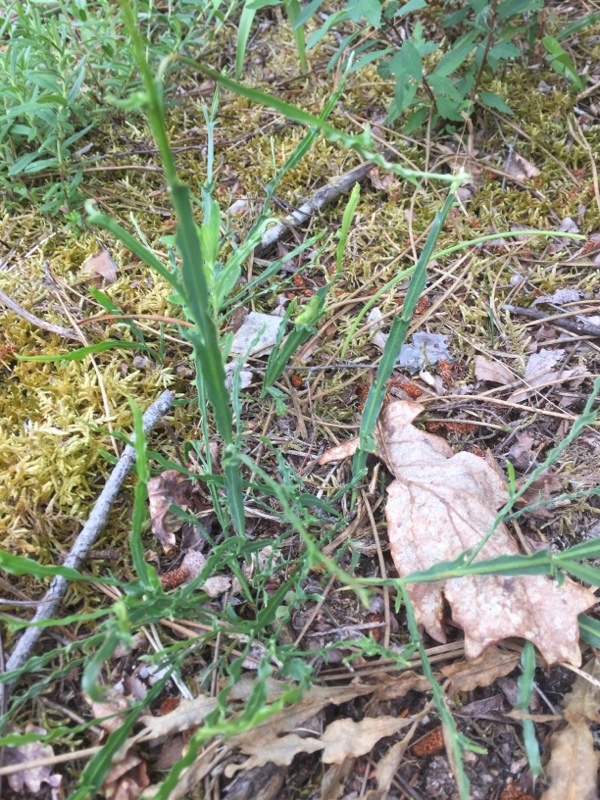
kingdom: Plantae
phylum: Tracheophyta
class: Magnoliopsida
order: Fabales
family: Fabaceae
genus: Genista
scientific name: Genista tridentata
